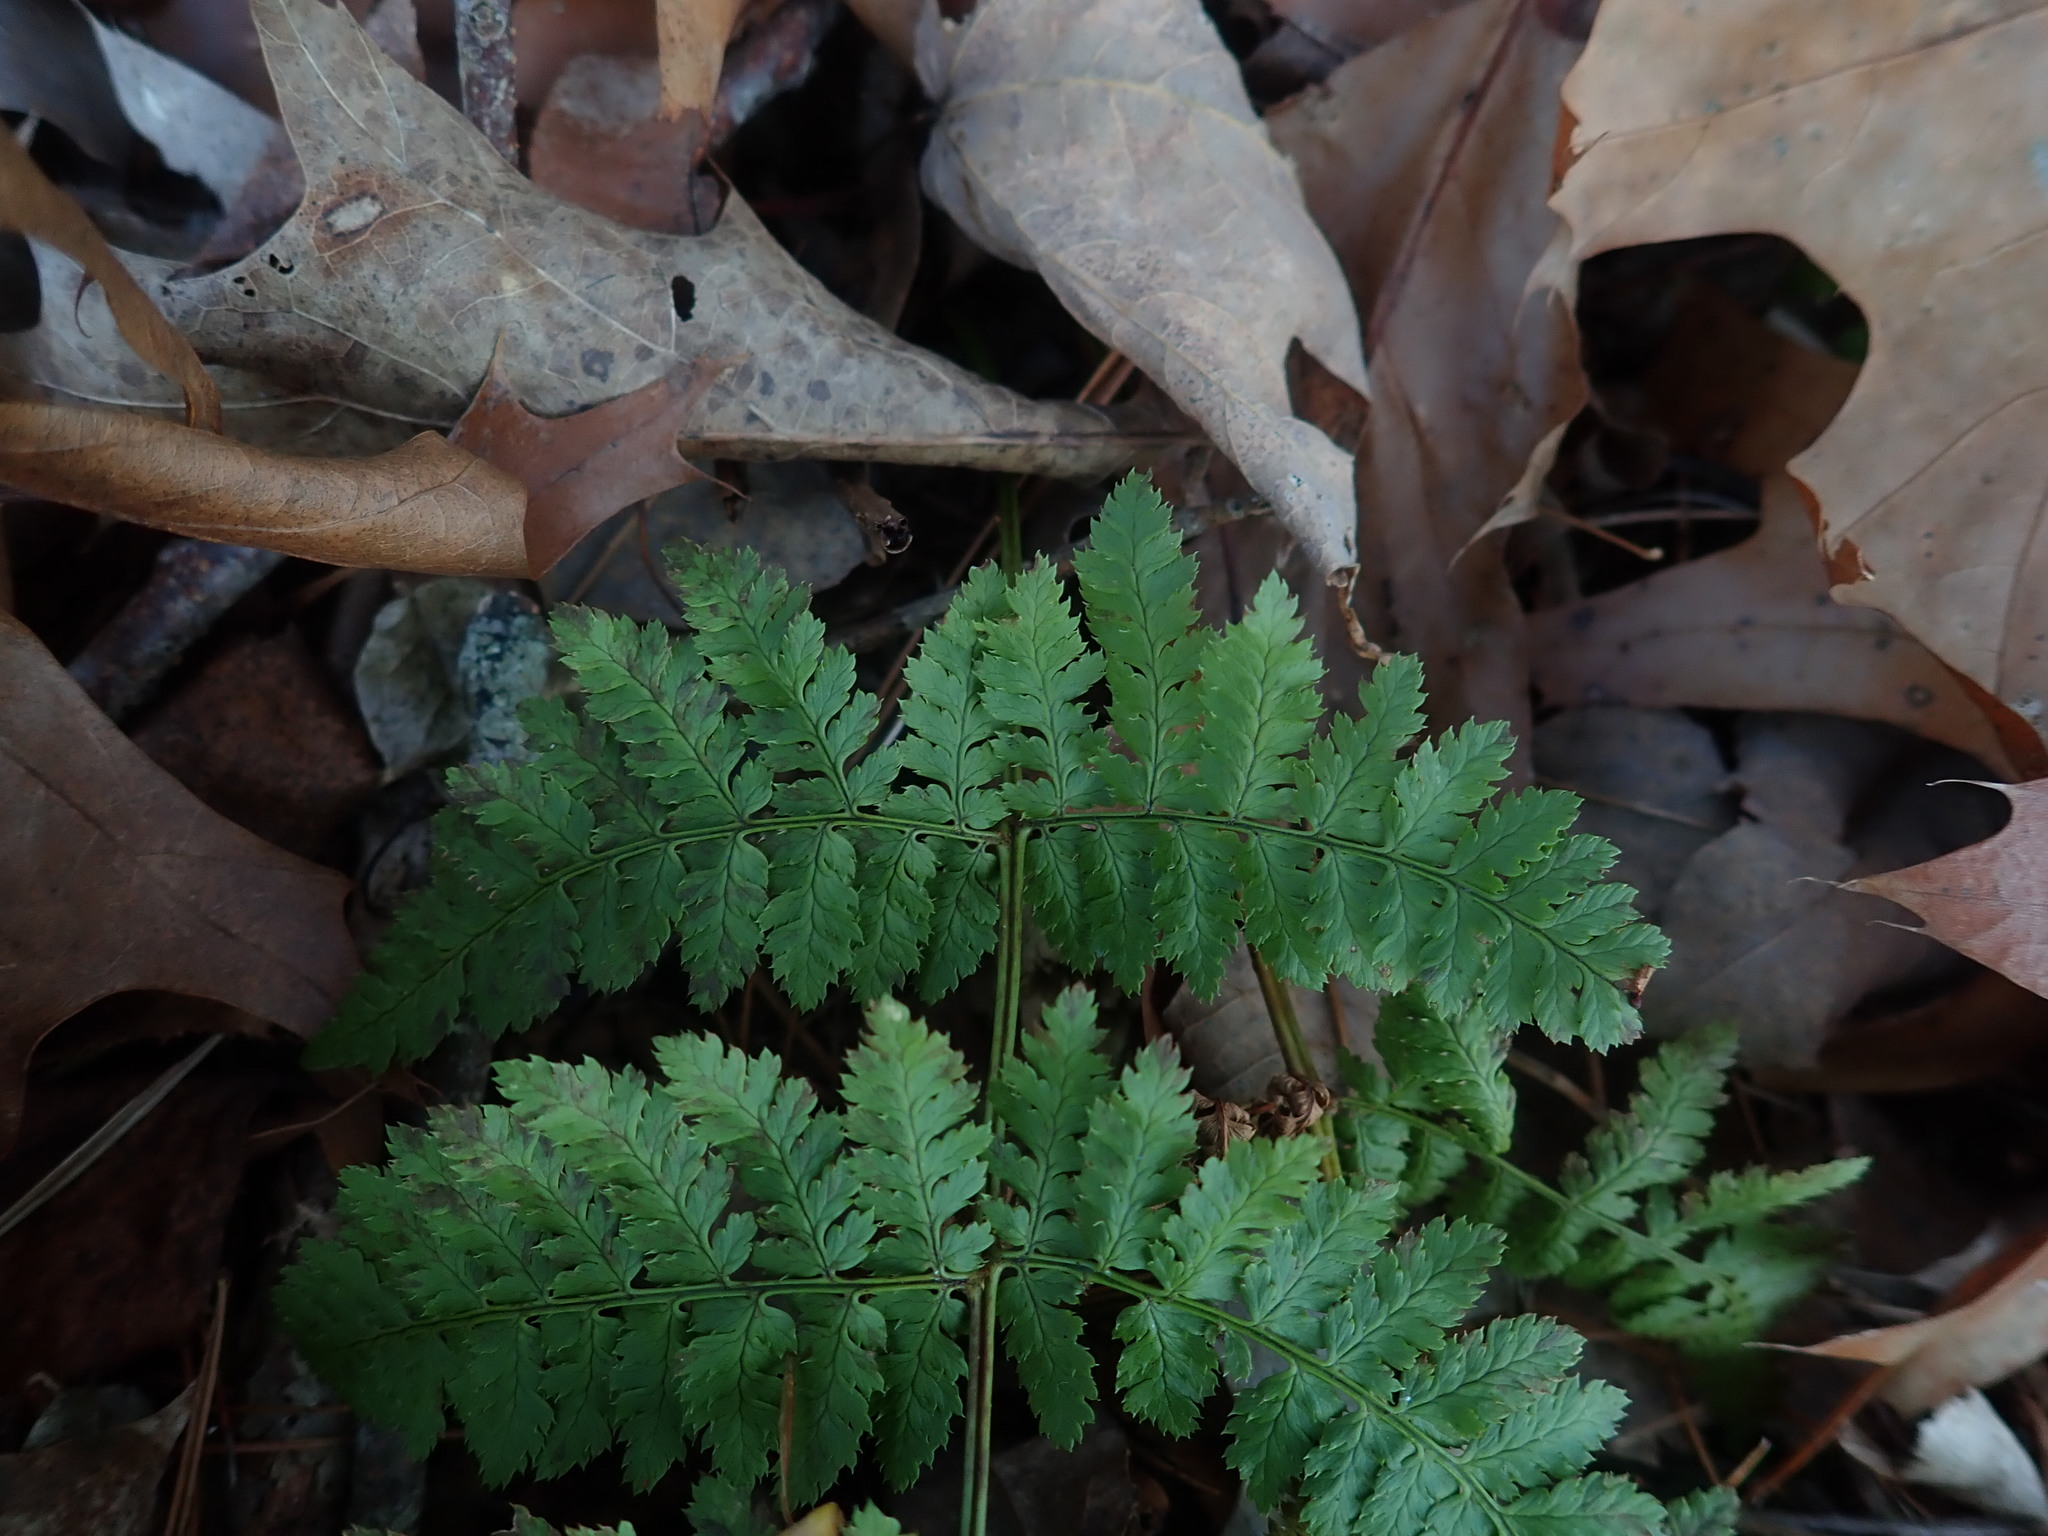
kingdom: Plantae
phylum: Tracheophyta
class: Polypodiopsida
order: Polypodiales
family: Dryopteridaceae
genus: Dryopteris
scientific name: Dryopteris intermedia
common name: Evergreen wood fern
